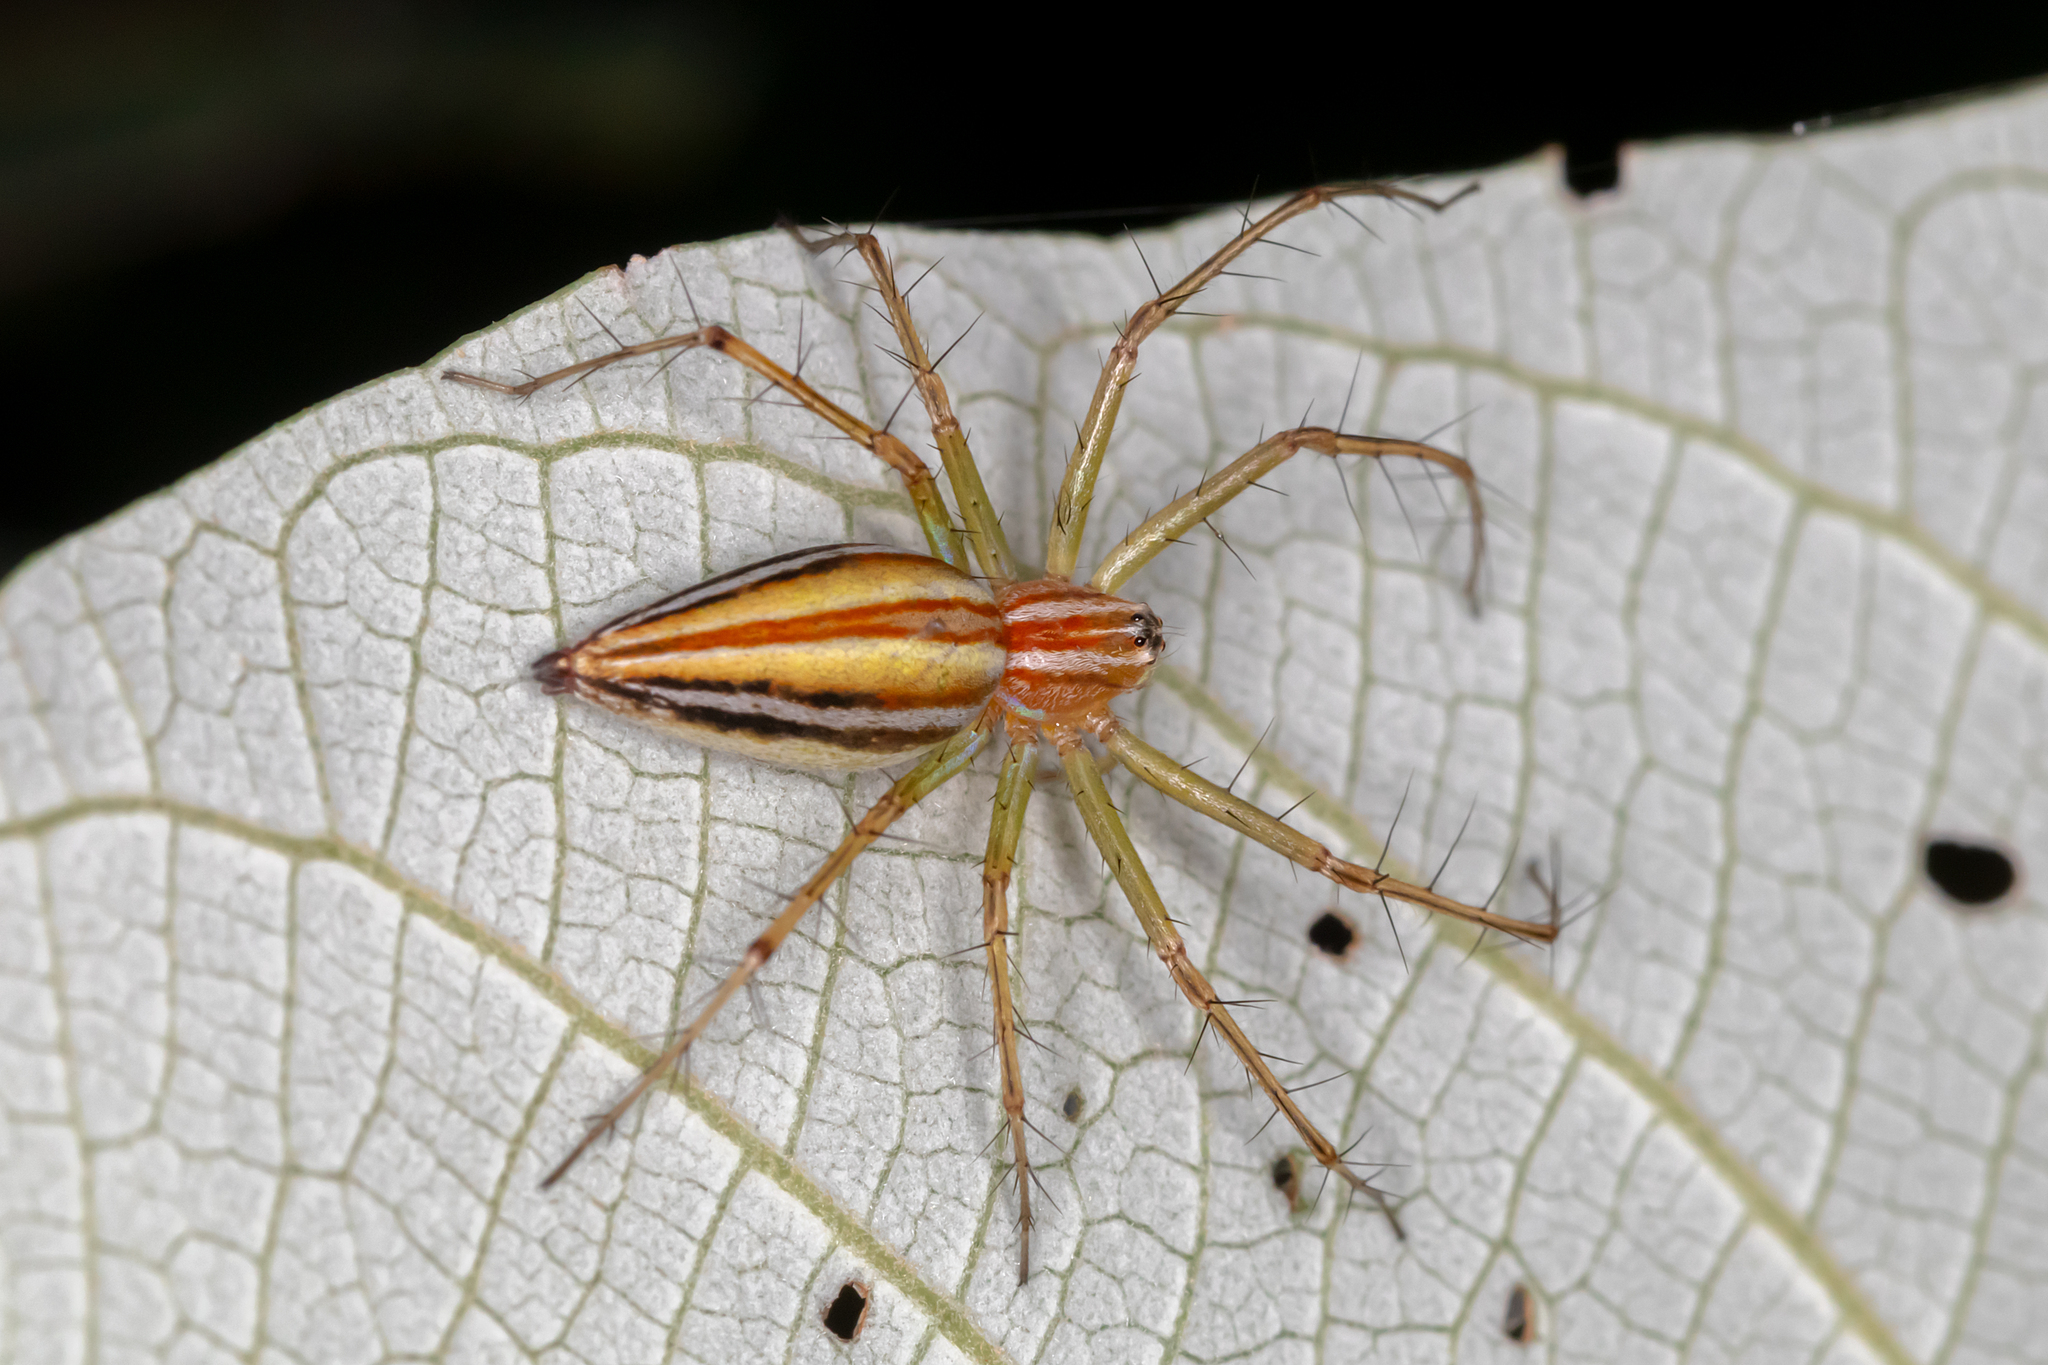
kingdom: Animalia
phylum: Arthropoda
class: Arachnida
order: Araneae
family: Oxyopidae
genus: Oxyopes
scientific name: Oxyopes macilentus
